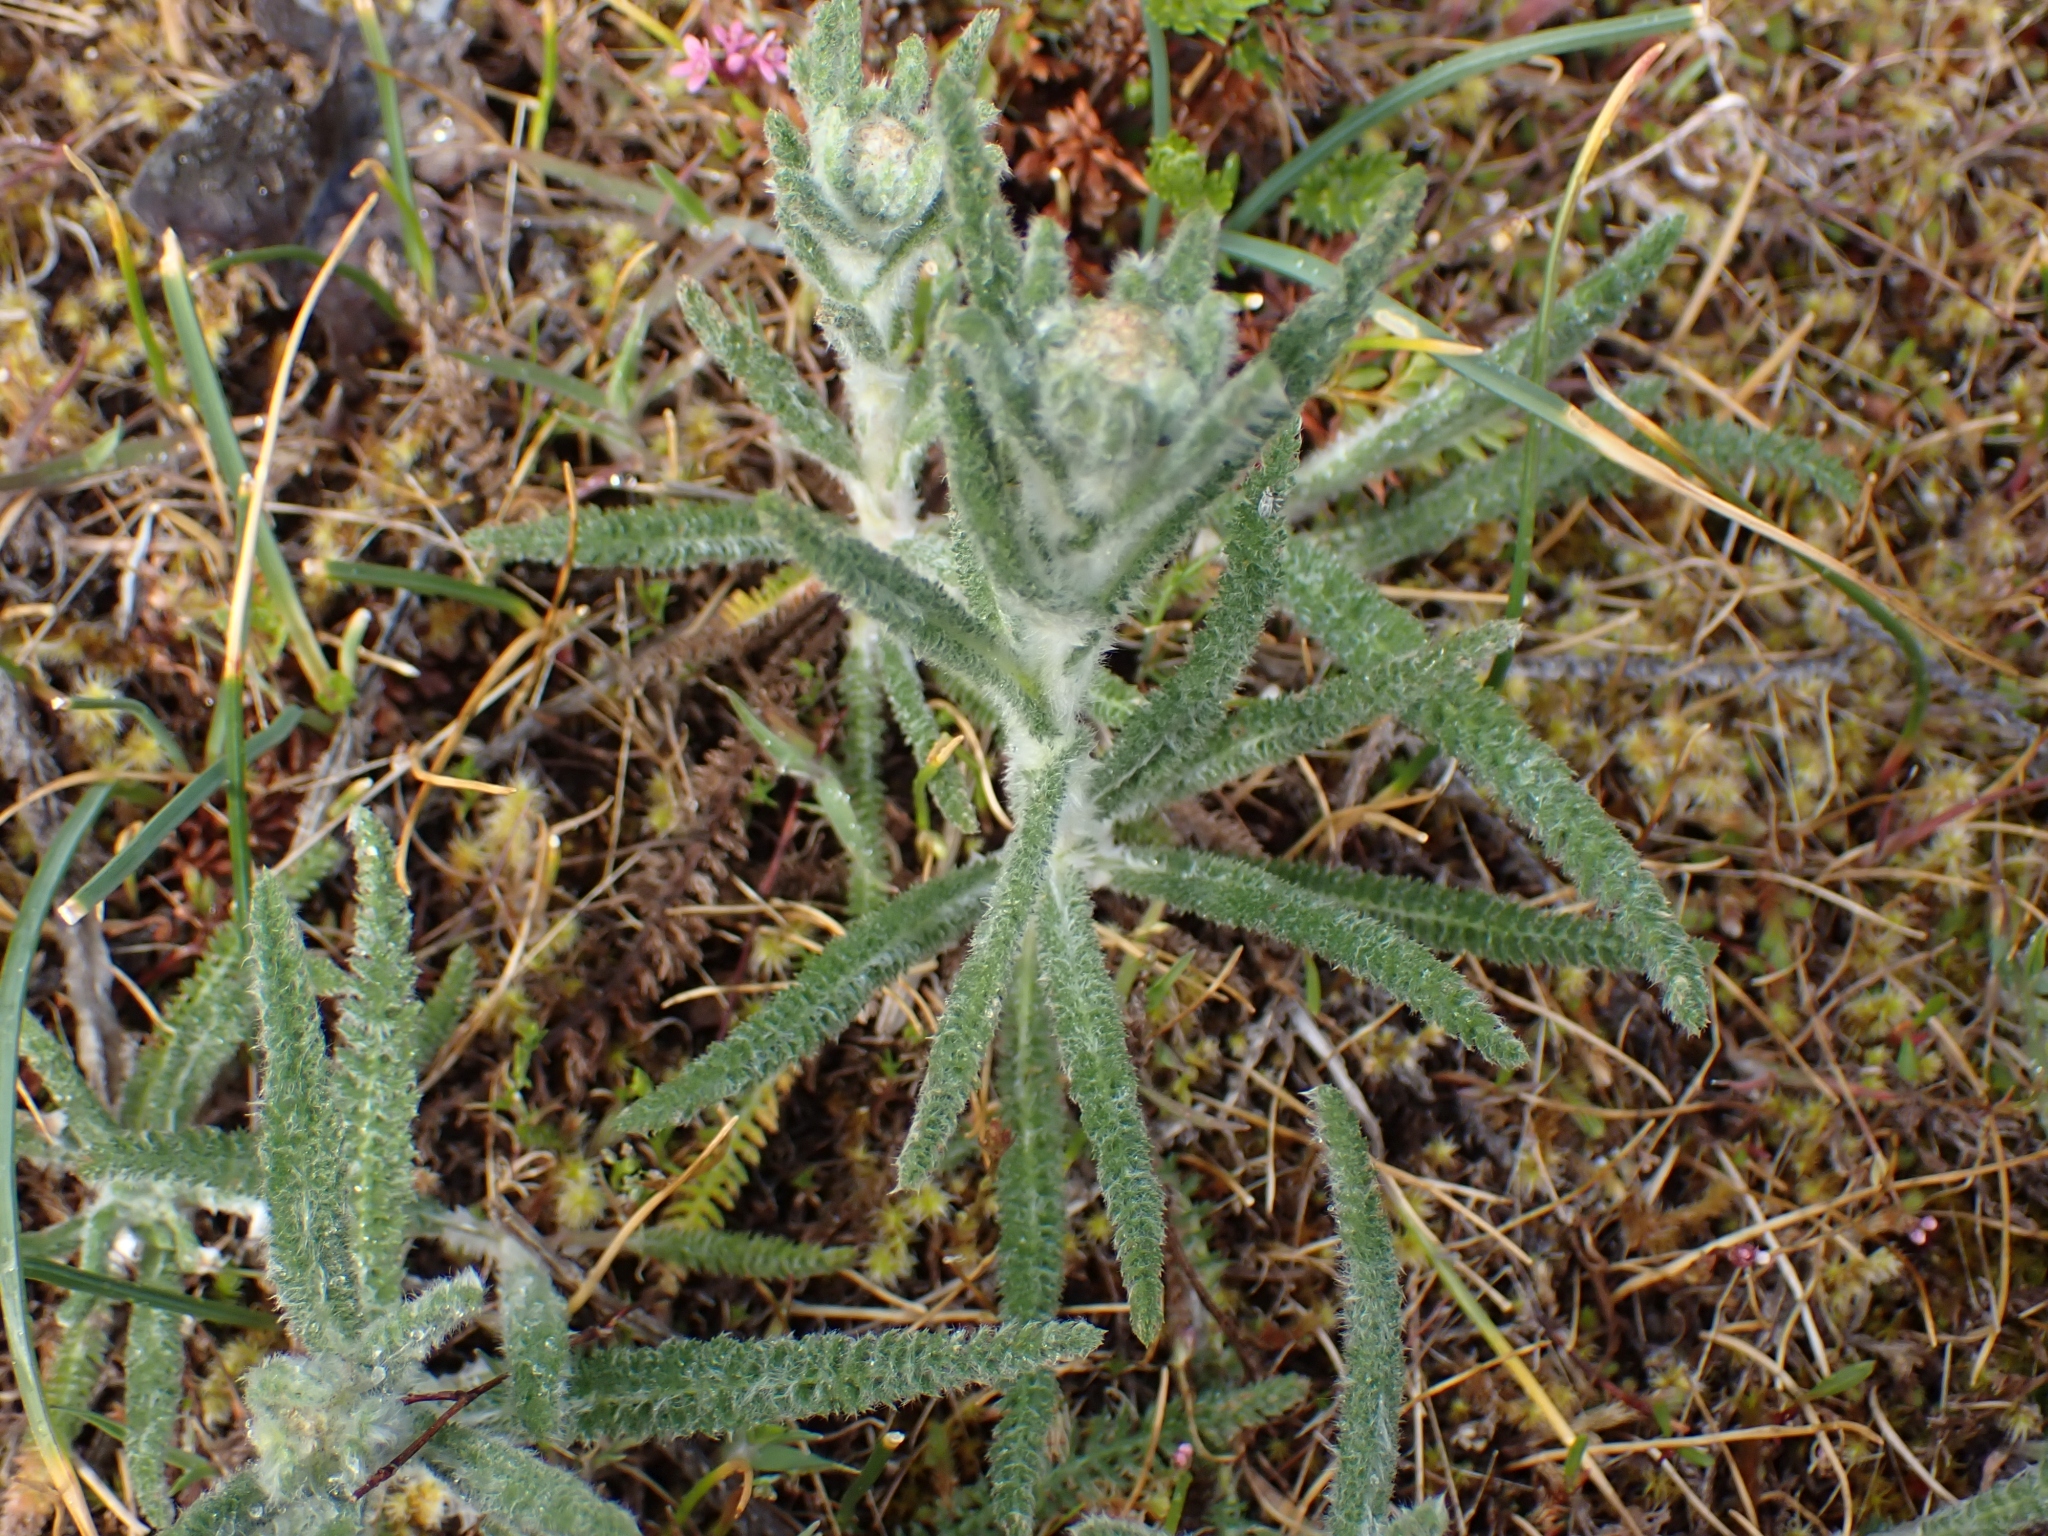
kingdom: Plantae
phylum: Tracheophyta
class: Magnoliopsida
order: Asterales
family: Asteraceae
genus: Achillea
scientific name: Achillea millefolium
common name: Yarrow
